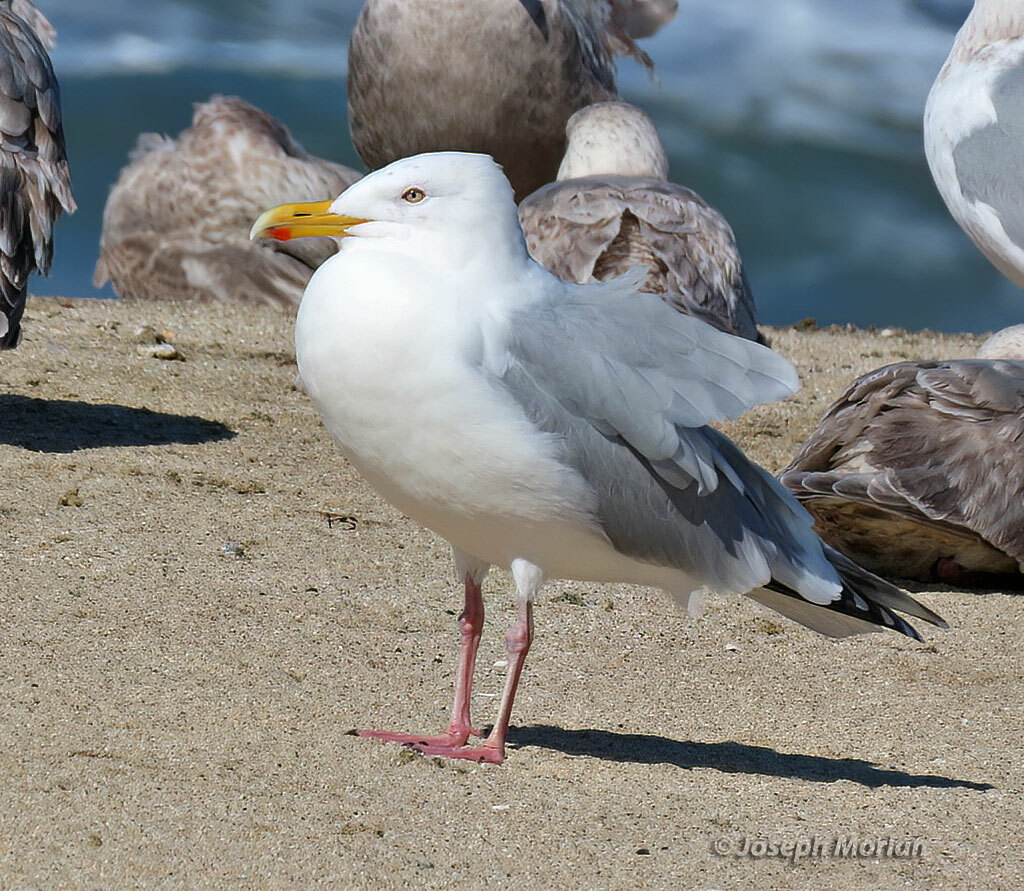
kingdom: Animalia
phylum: Chordata
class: Aves
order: Charadriiformes
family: Laridae
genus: Larus
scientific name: Larus argentatus
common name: Herring gull
